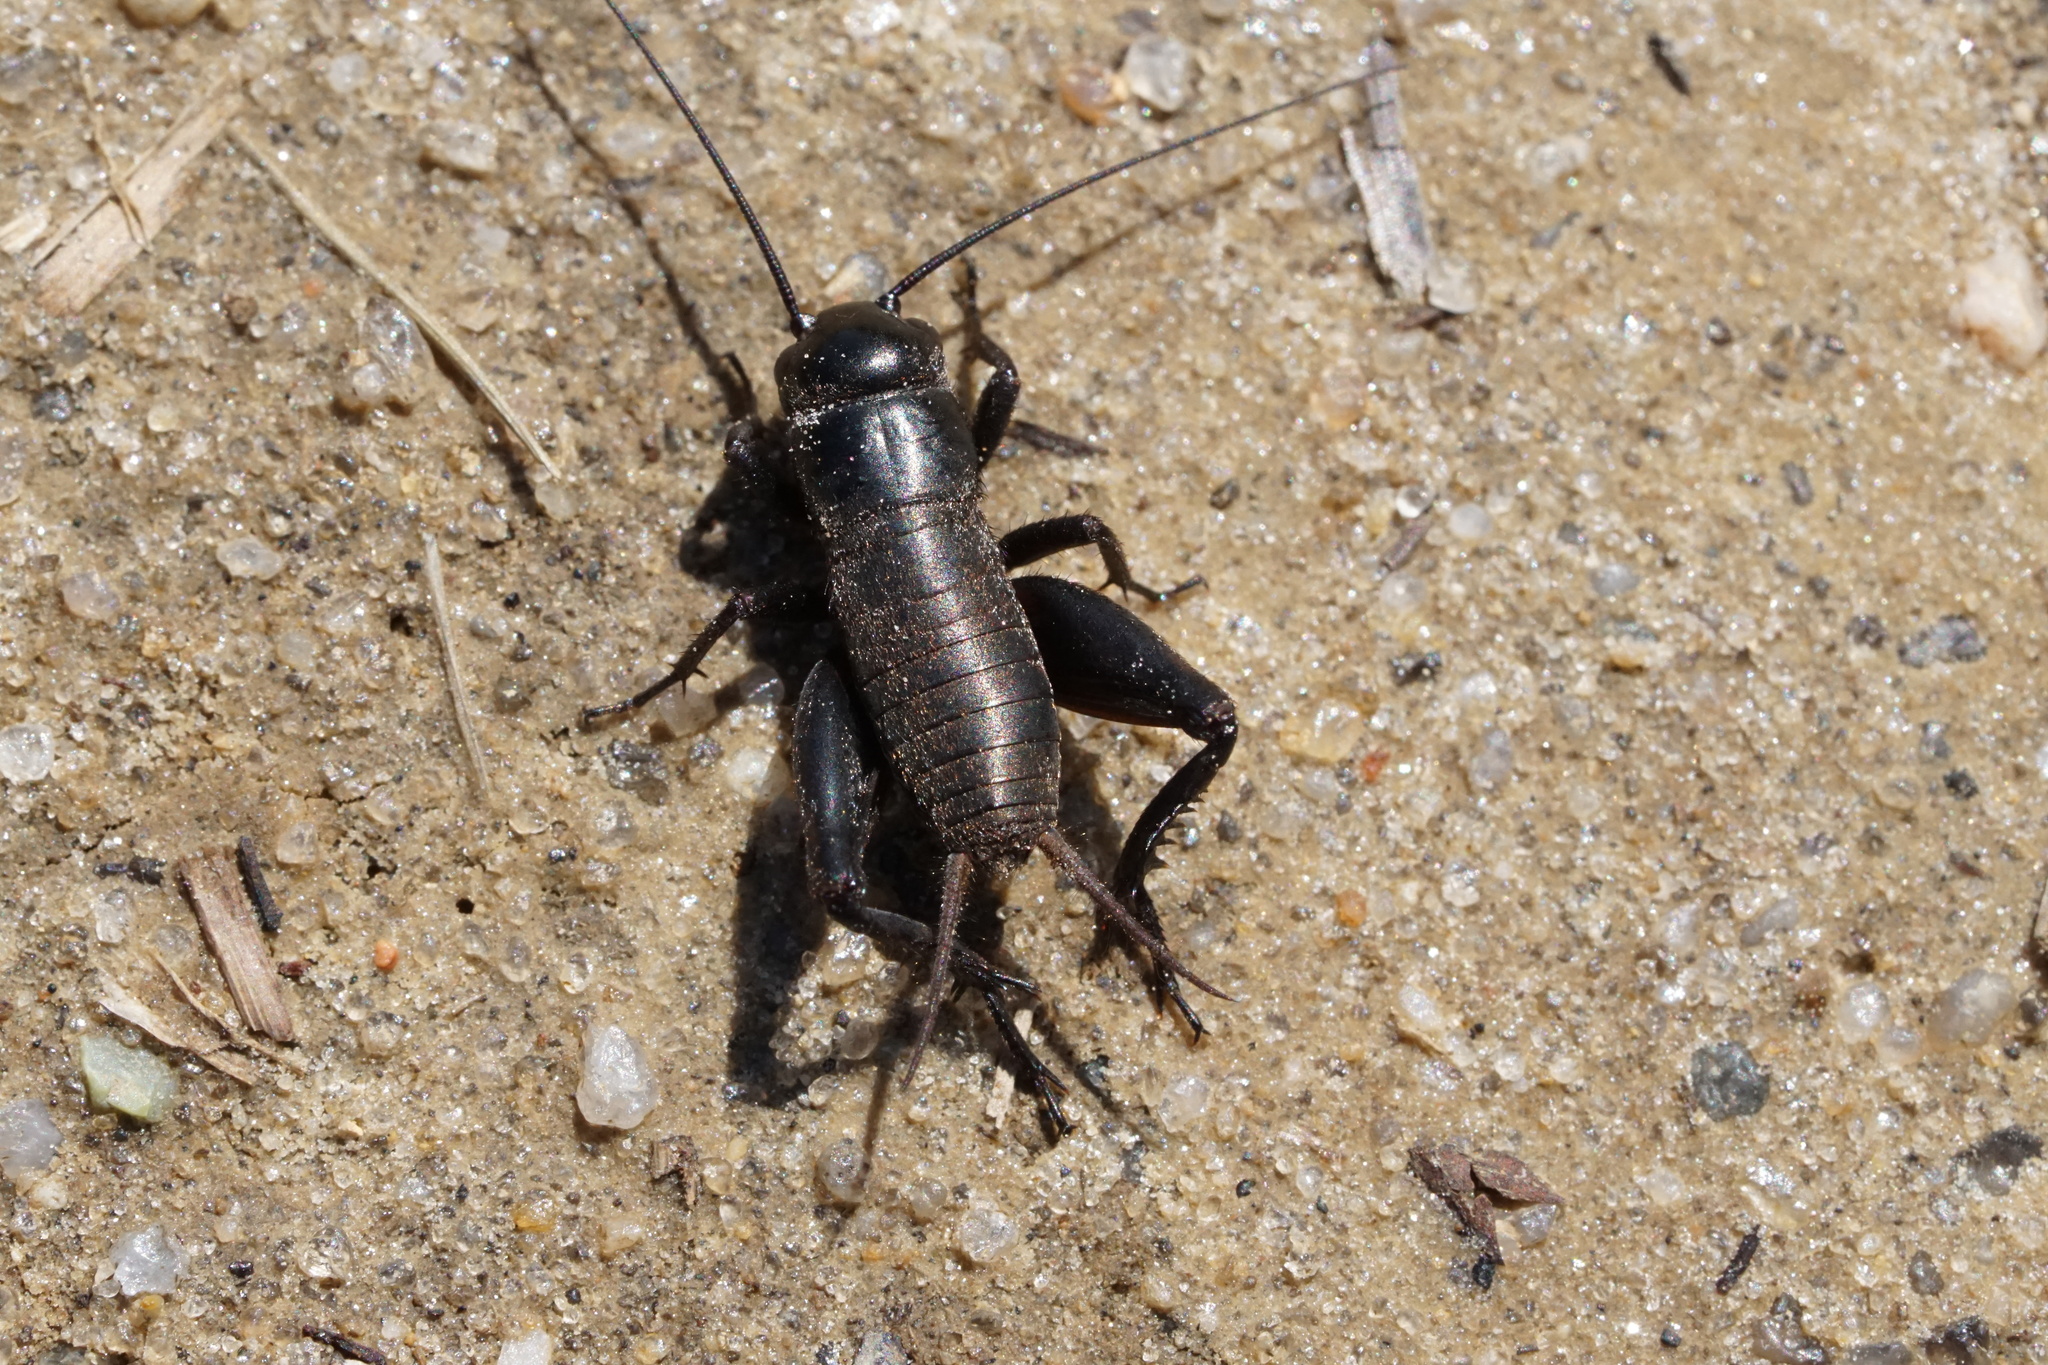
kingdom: Animalia
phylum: Arthropoda
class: Insecta
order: Orthoptera
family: Gryllidae
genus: Gryllus
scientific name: Gryllus veletis
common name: Spring field cricket
